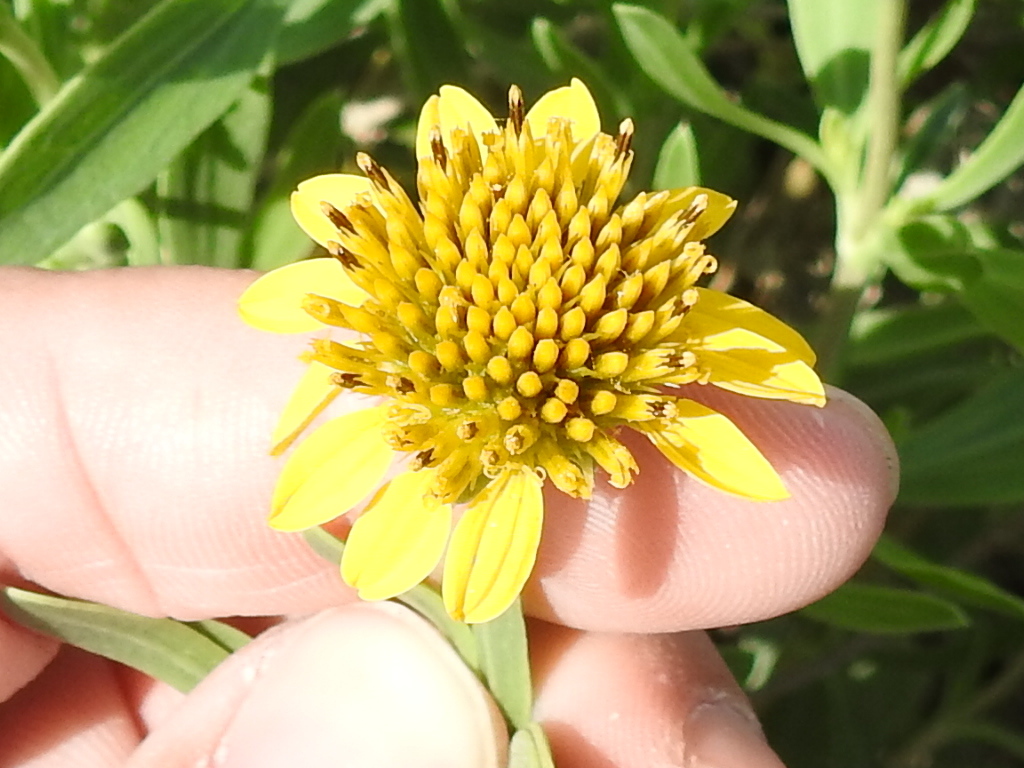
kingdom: Plantae
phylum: Tracheophyta
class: Magnoliopsida
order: Asterales
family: Asteraceae
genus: Borrichia
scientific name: Borrichia frutescens
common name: Sea oxeye
